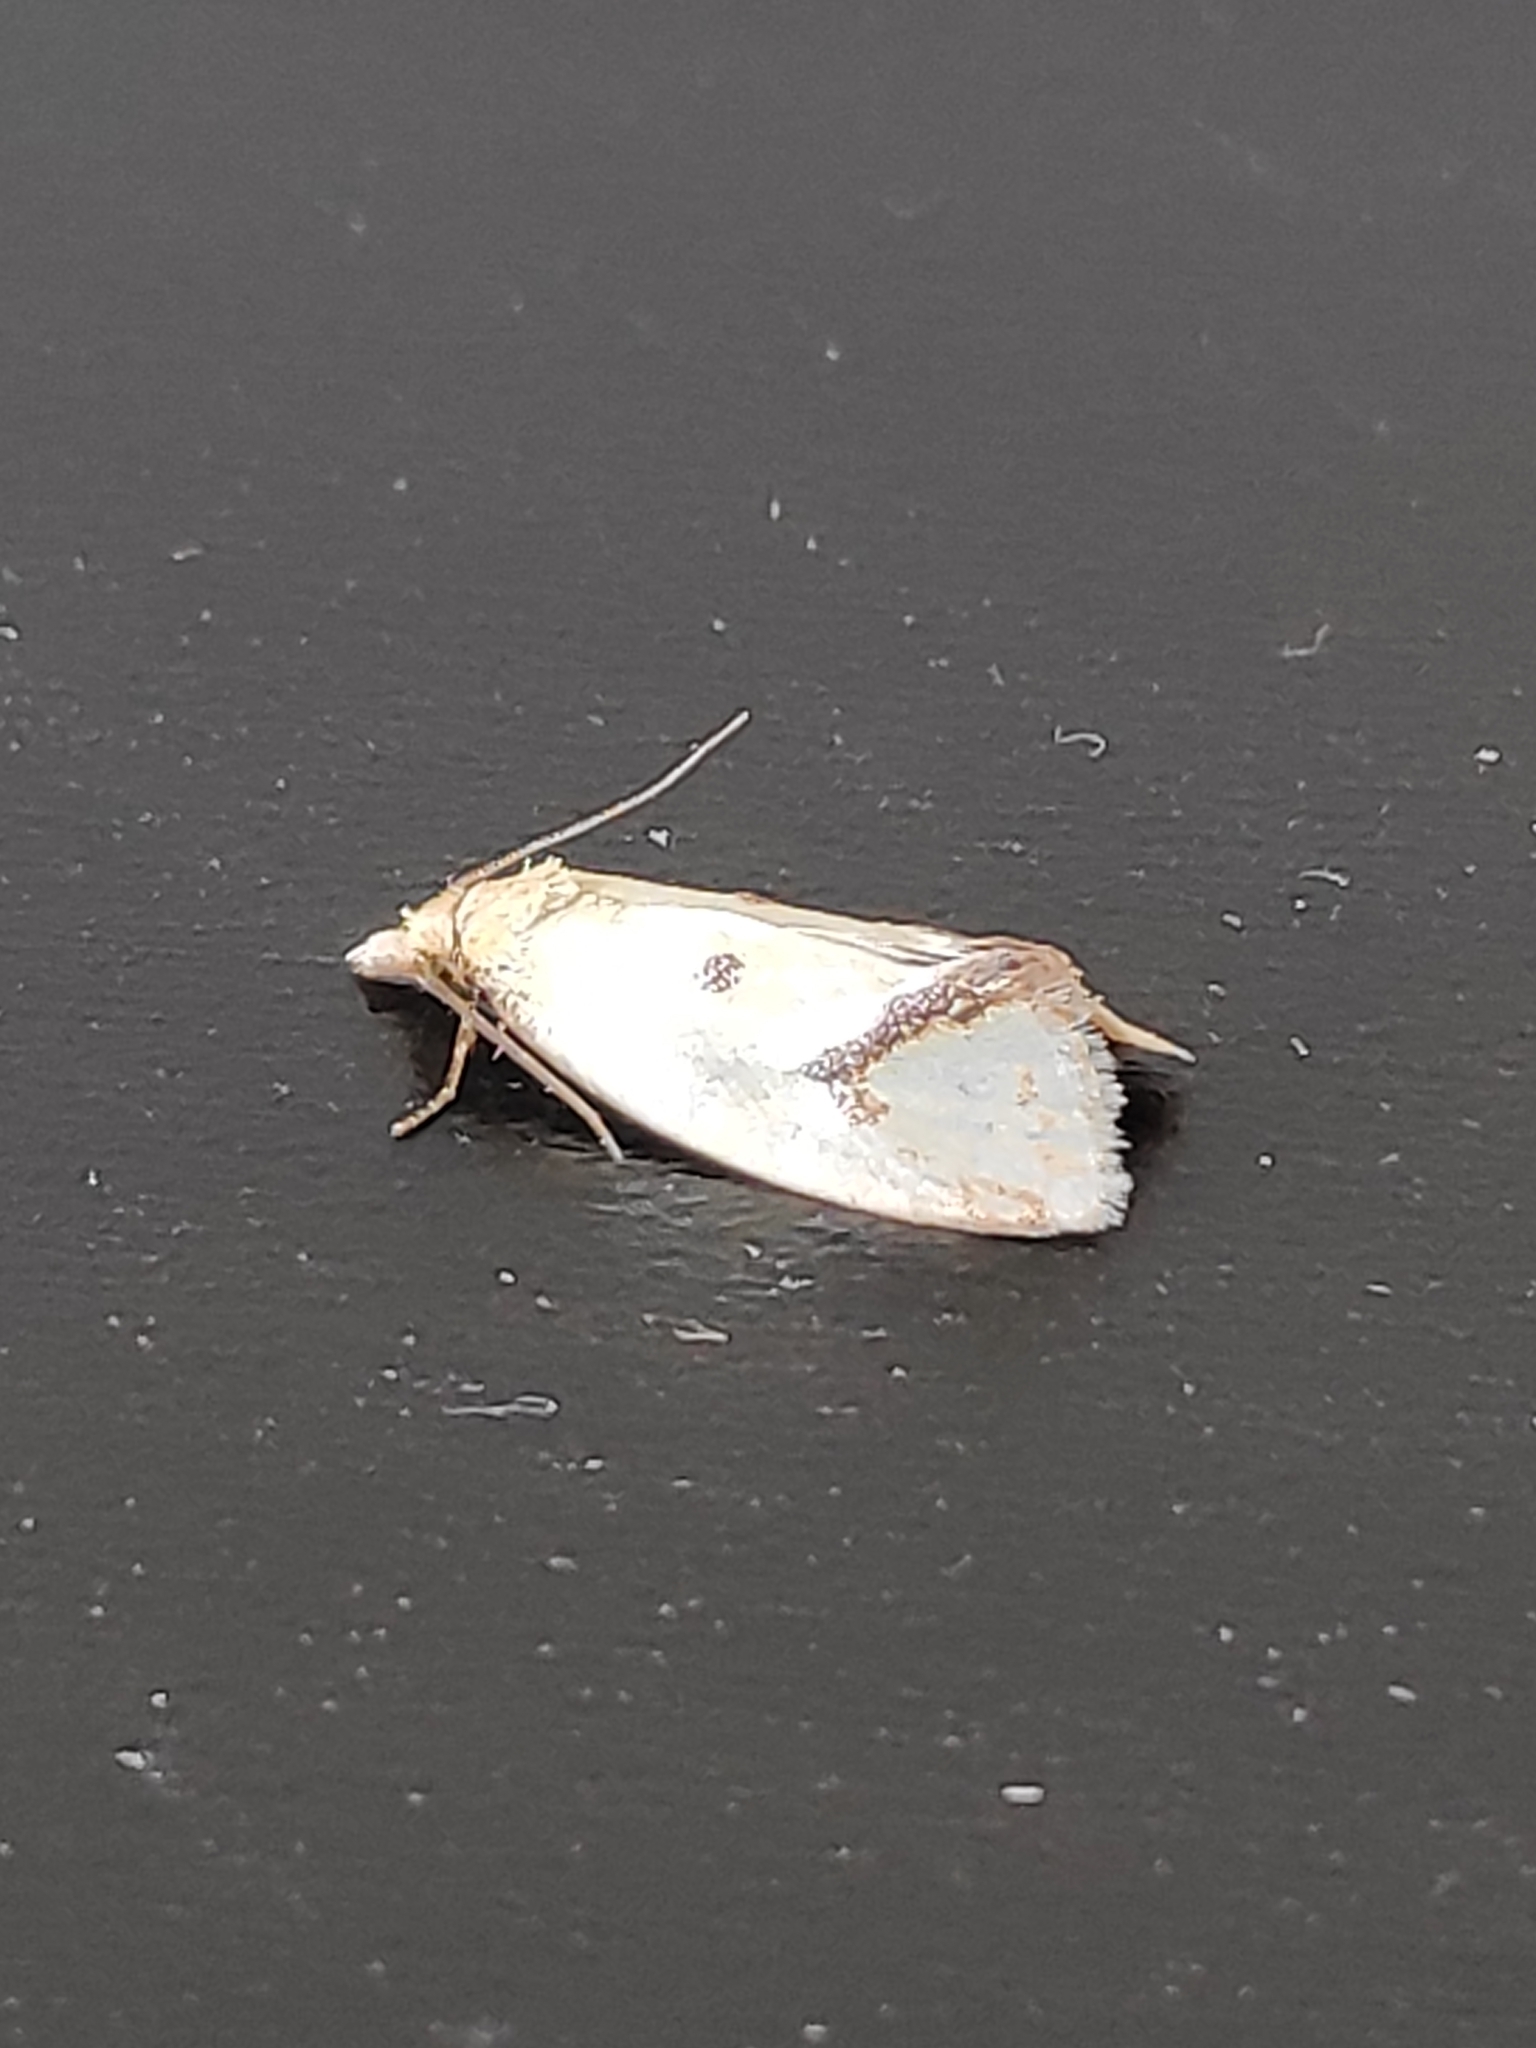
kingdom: Animalia
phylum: Arthropoda
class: Insecta
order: Lepidoptera
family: Tortricidae
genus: Agapeta
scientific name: Agapeta hamana
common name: Common yellow conch
